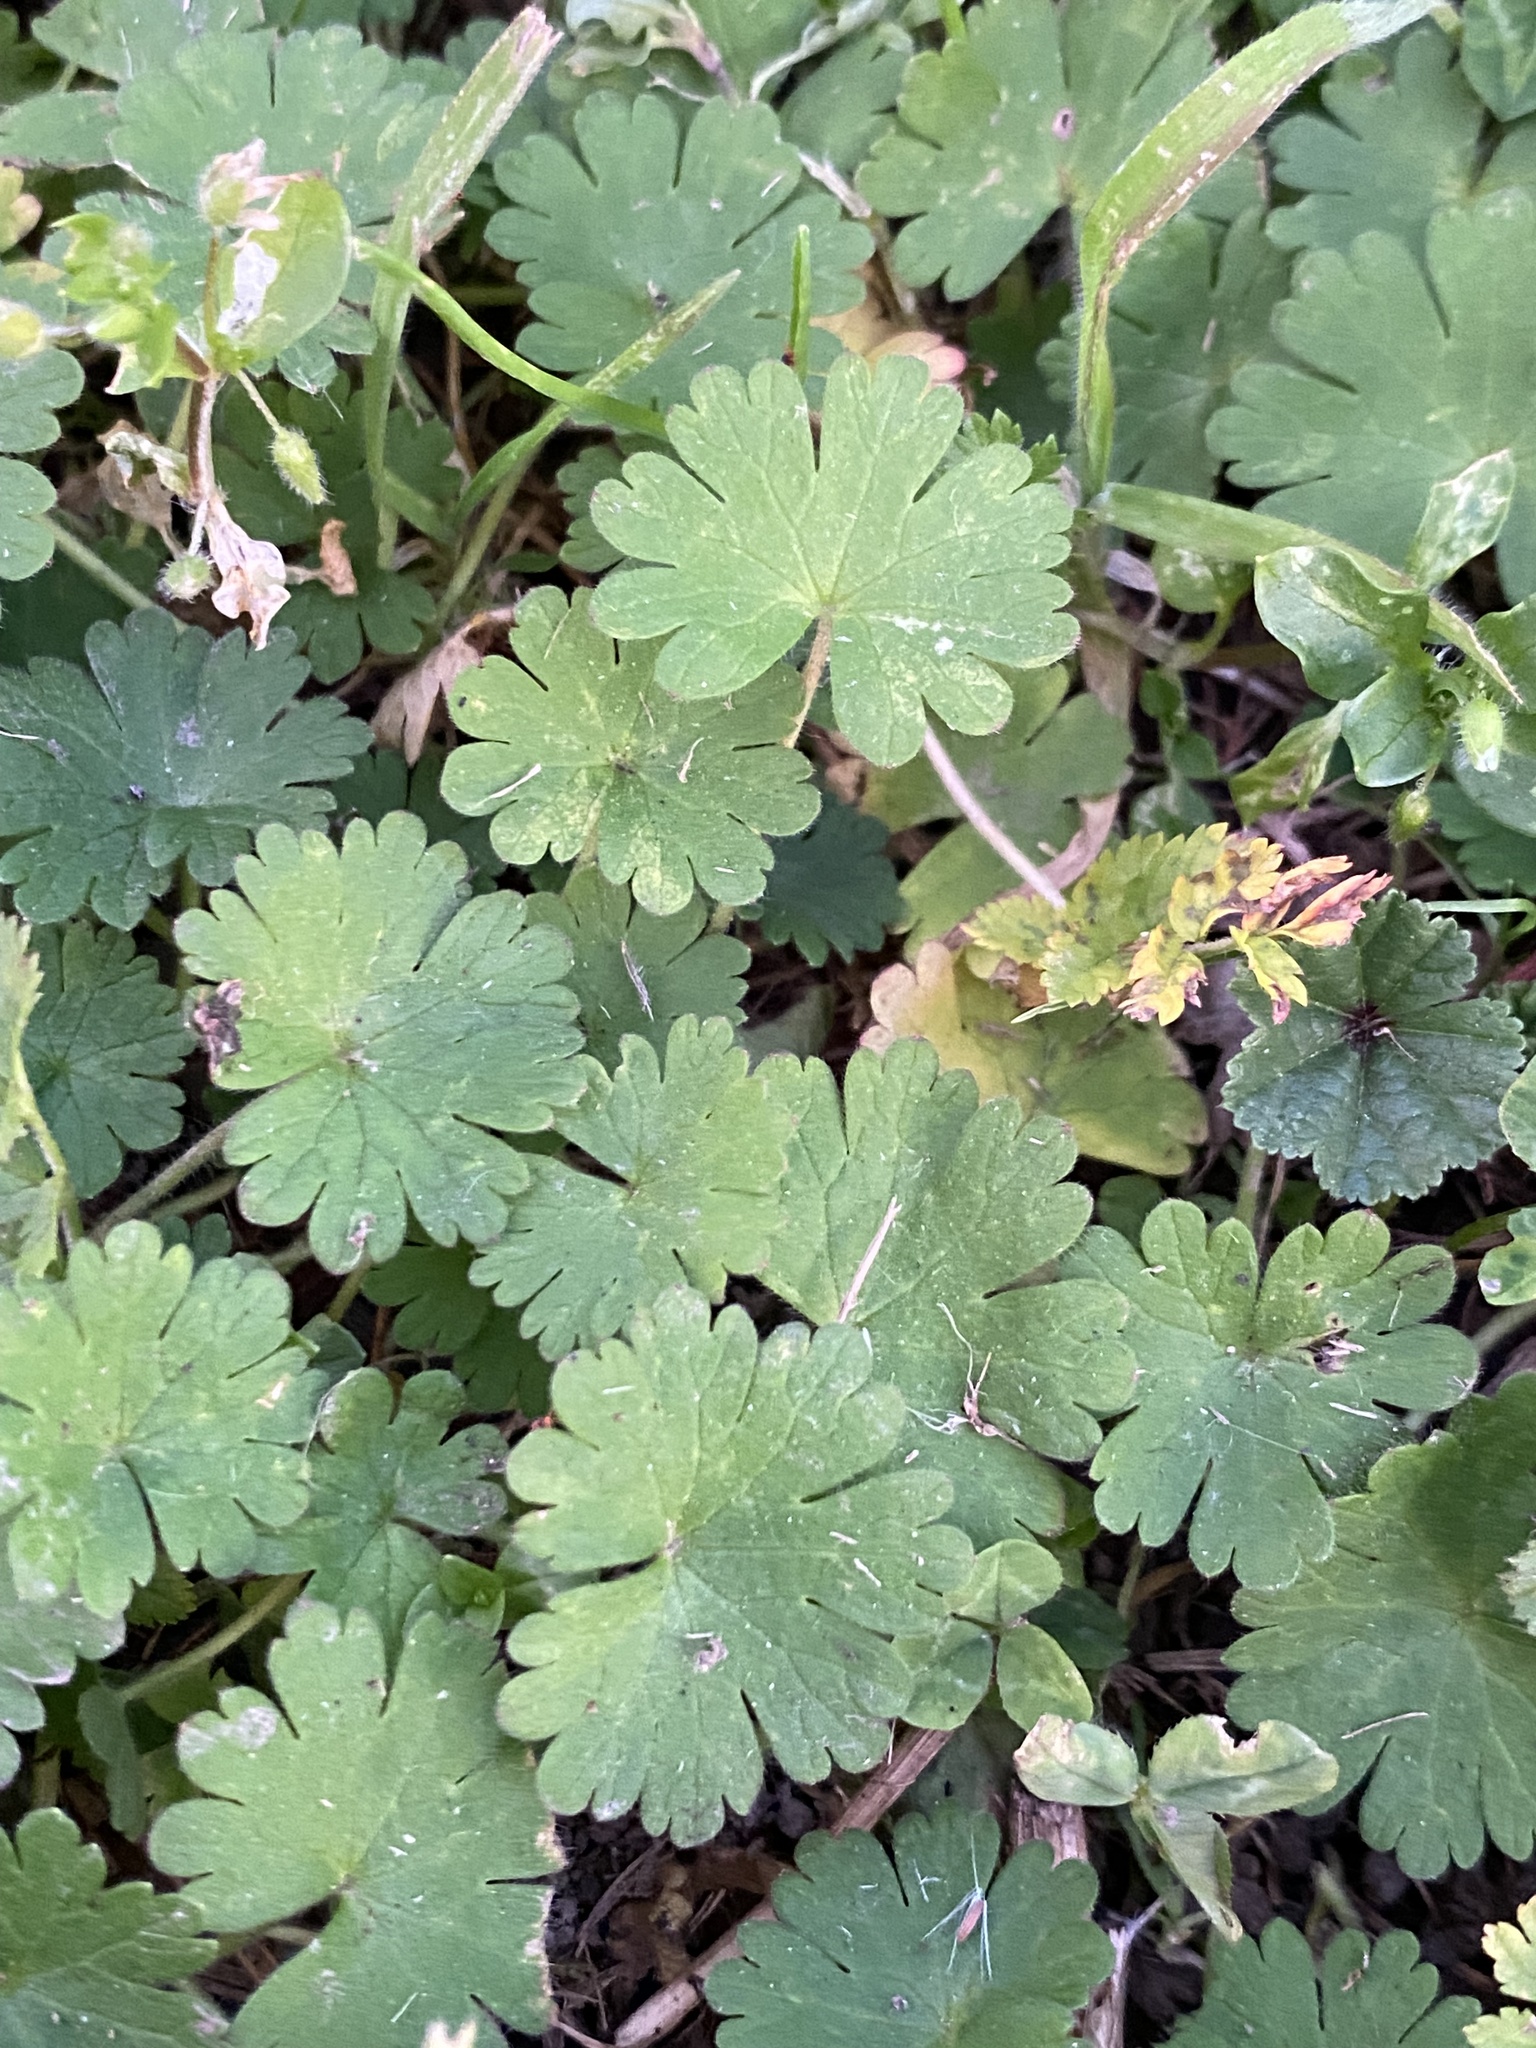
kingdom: Plantae
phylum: Tracheophyta
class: Magnoliopsida
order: Geraniales
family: Geraniaceae
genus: Geranium
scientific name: Geranium molle
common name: Dove's-foot crane's-bill
